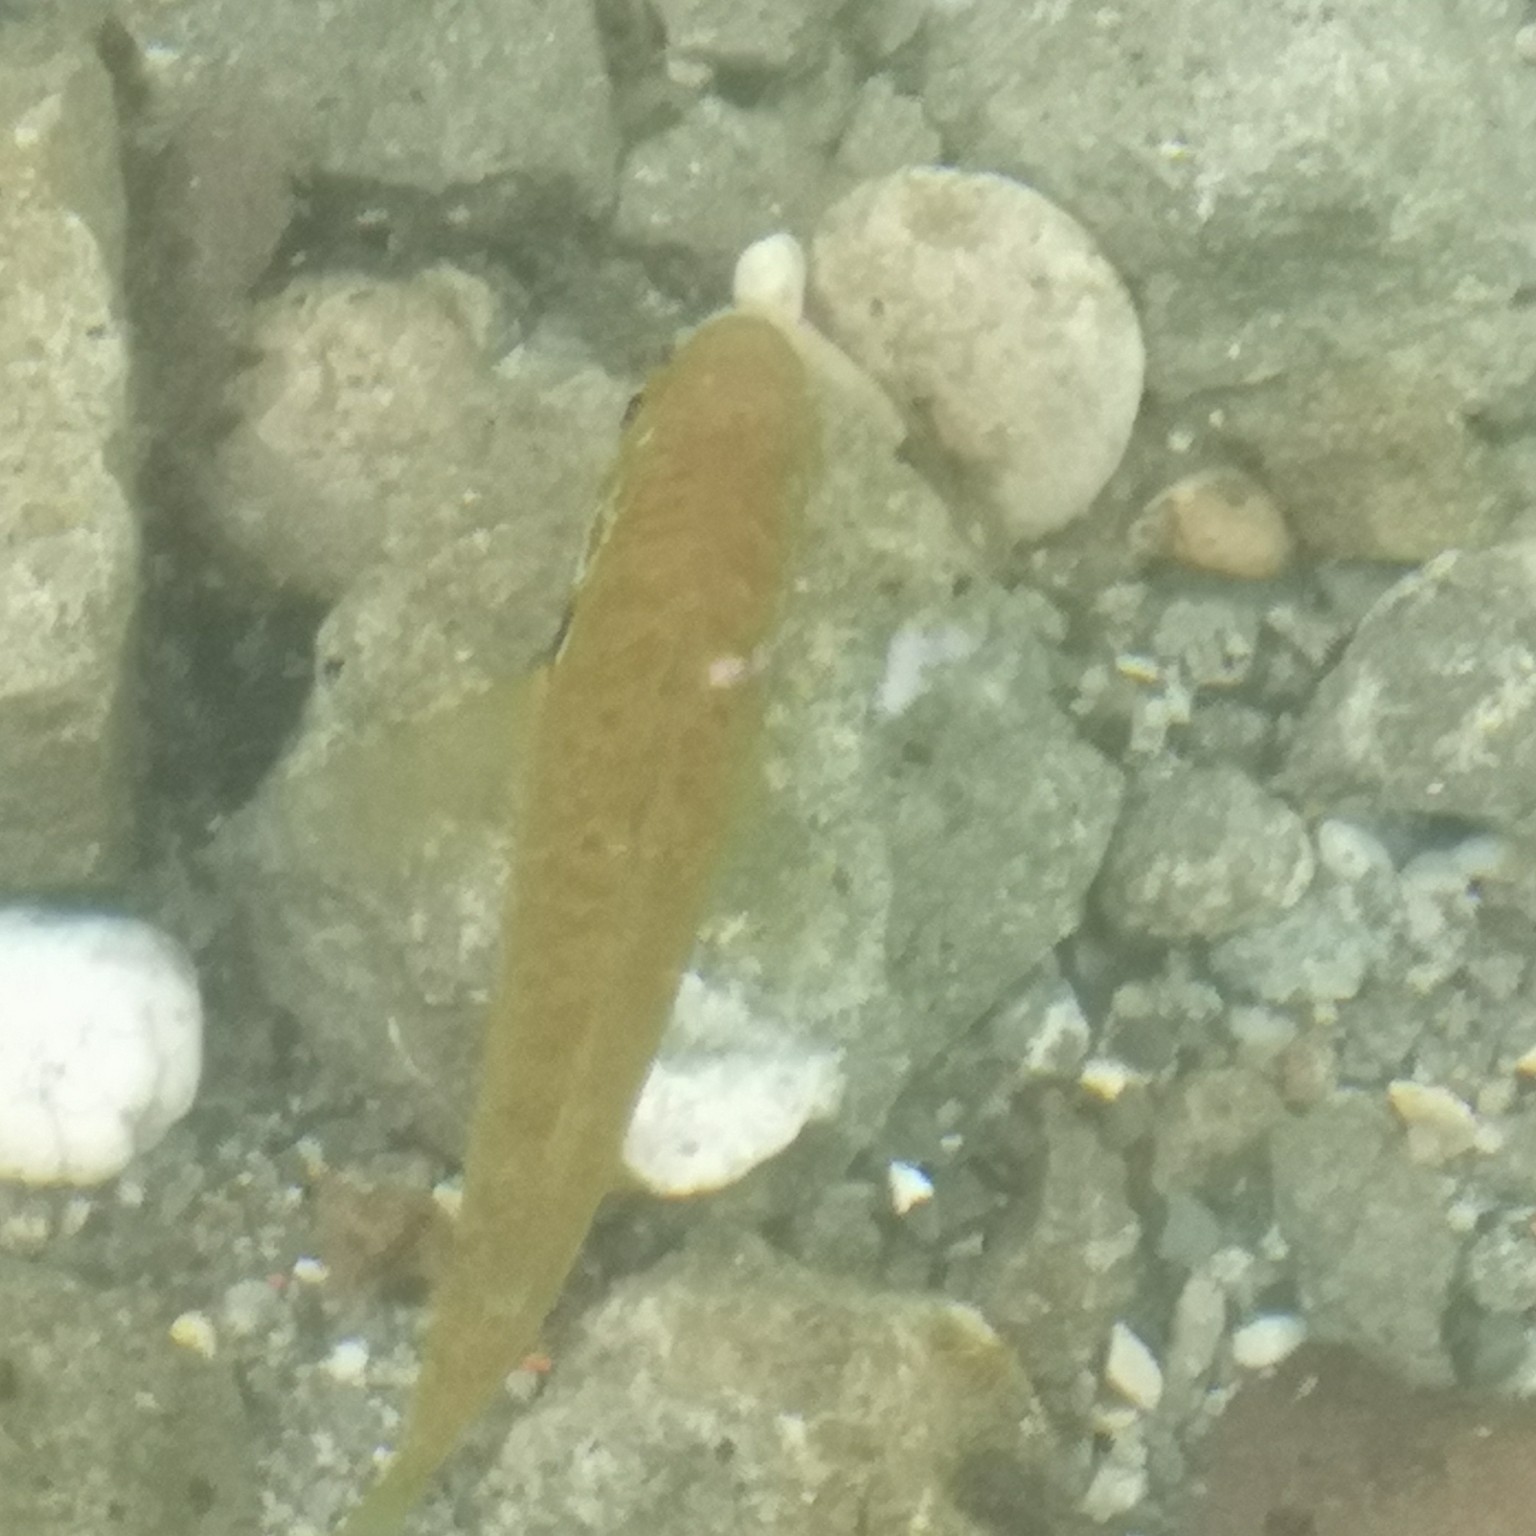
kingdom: Animalia
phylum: Chordata
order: Perciformes
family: Centrarchidae
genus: Lepomis
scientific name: Lepomis gibbosus
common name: Pumpkinseed
